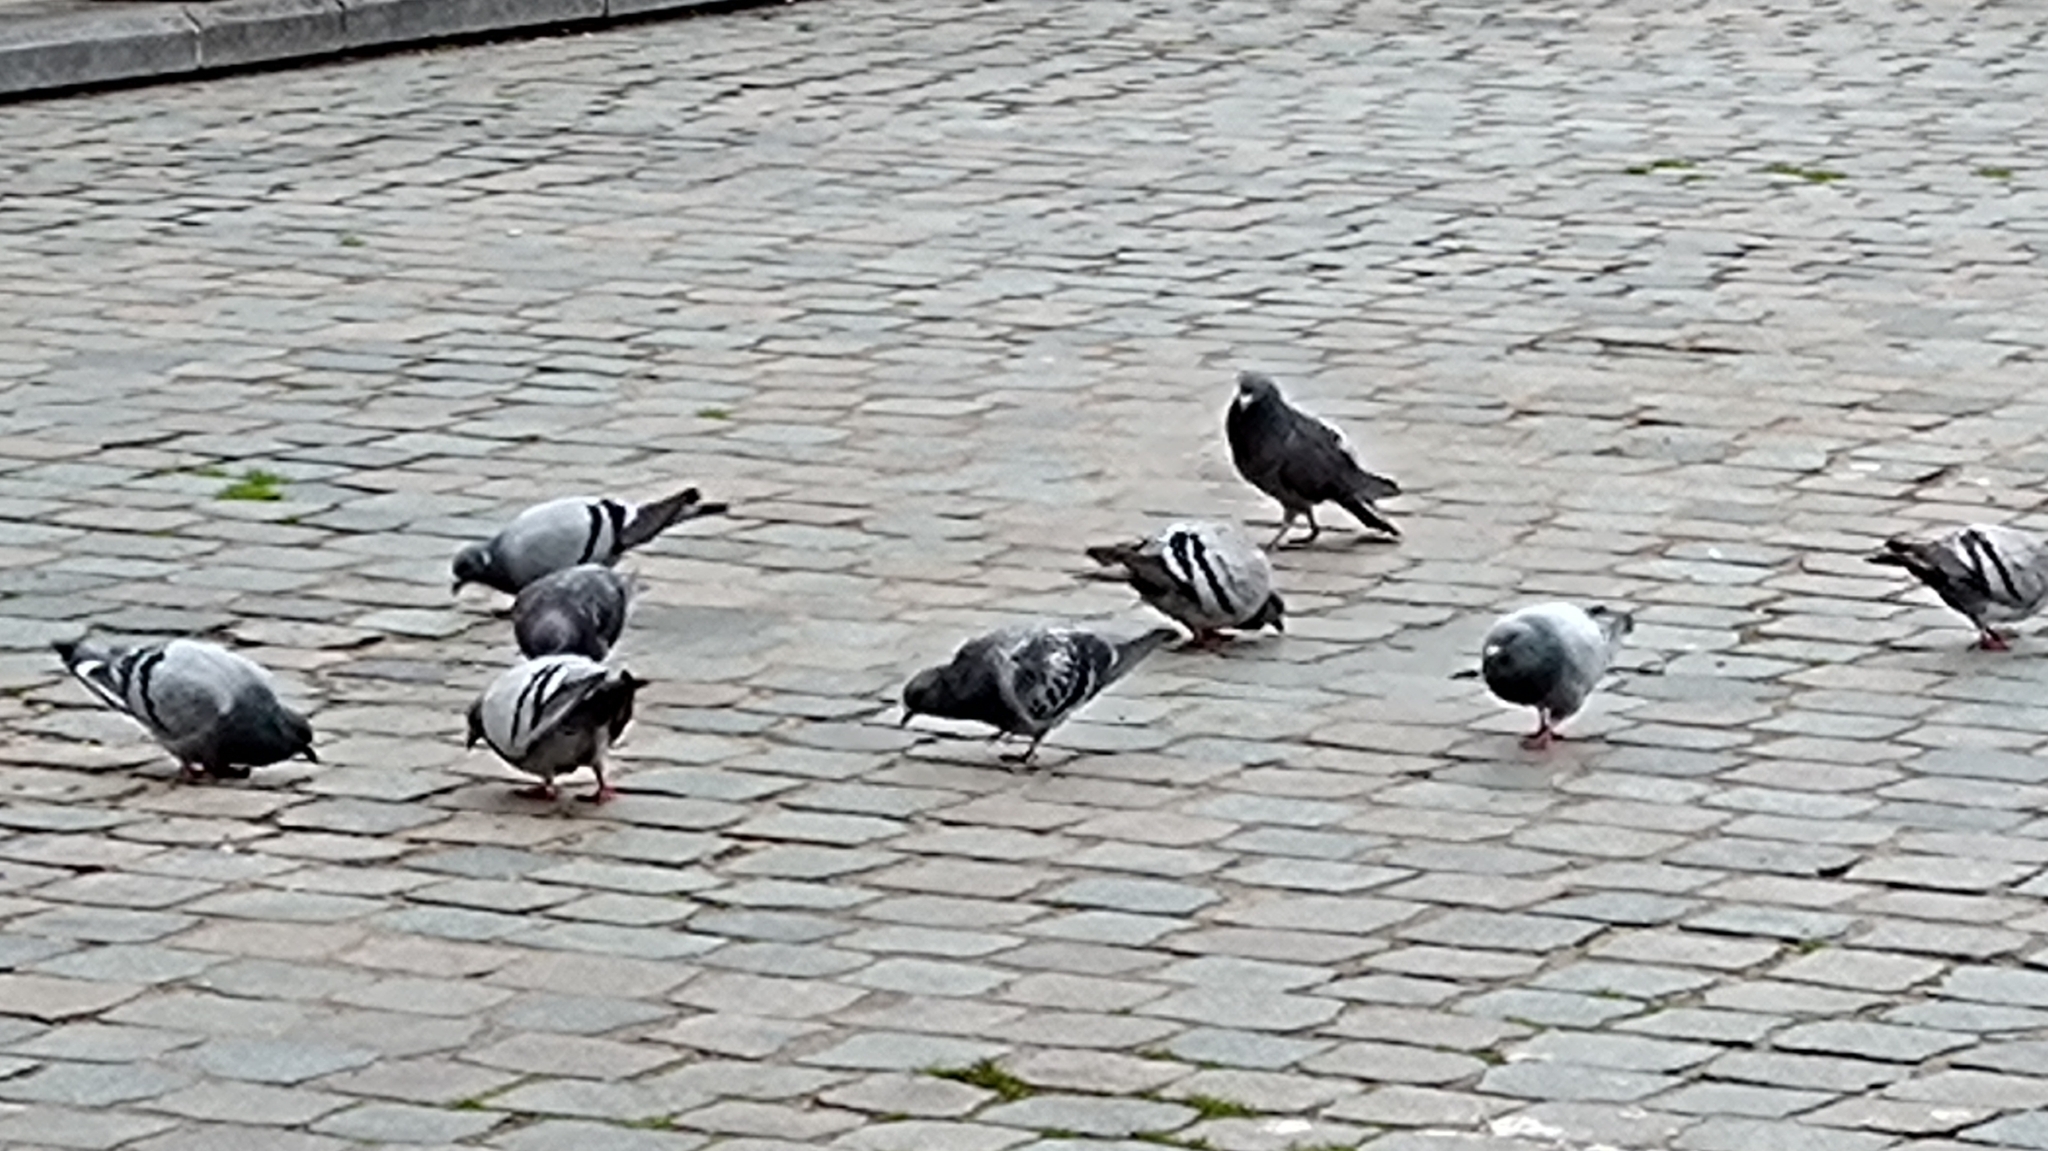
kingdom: Animalia
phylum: Chordata
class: Aves
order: Columbiformes
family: Columbidae
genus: Columba
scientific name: Columba livia
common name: Rock pigeon
